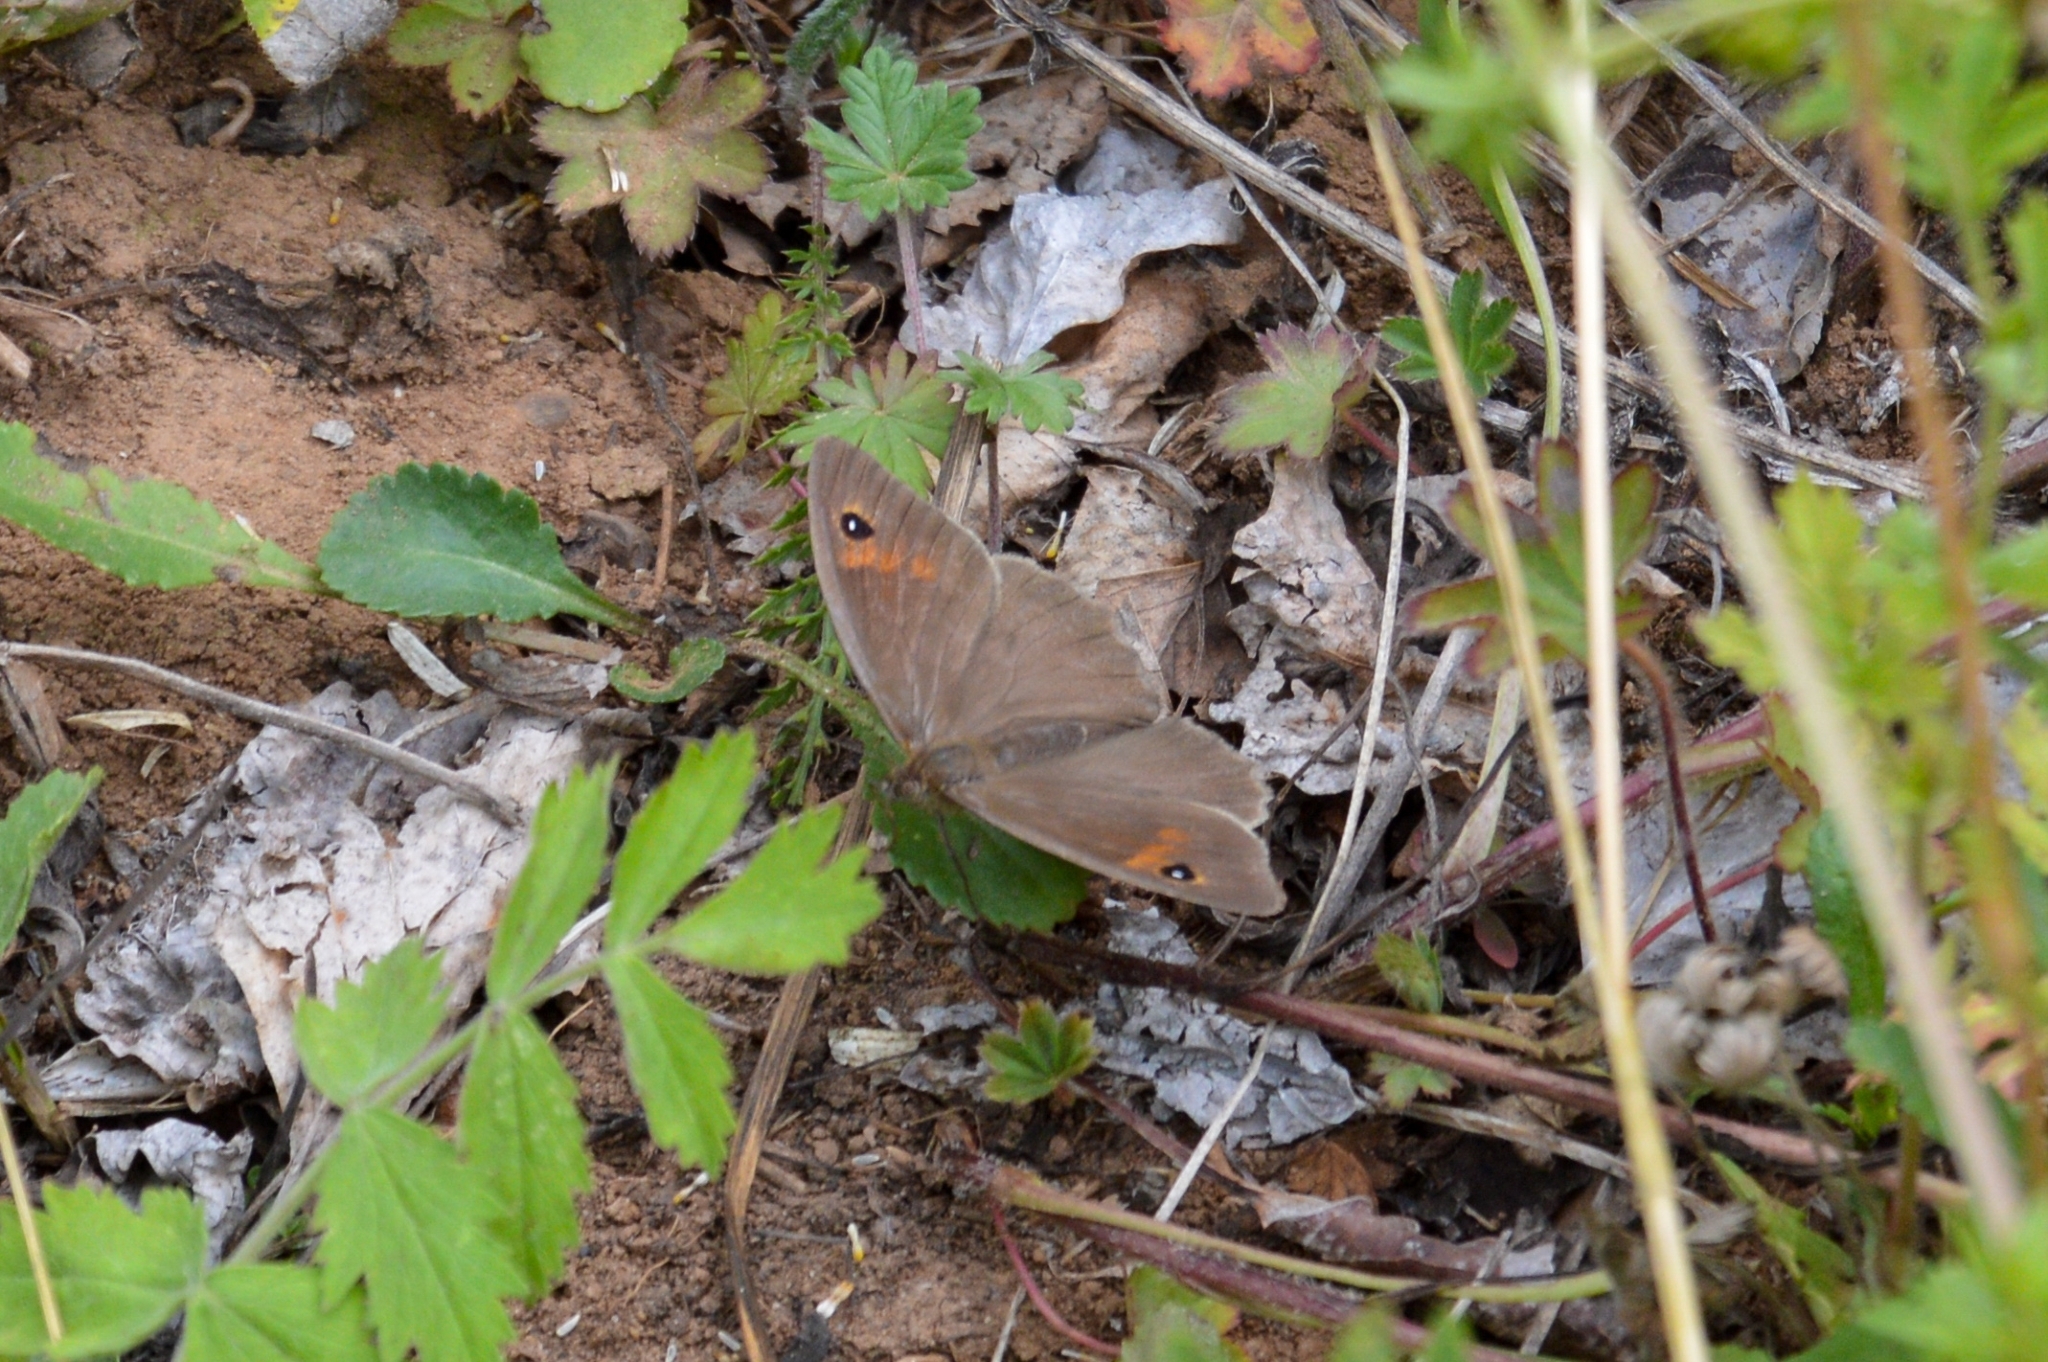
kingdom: Animalia
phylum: Arthropoda
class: Insecta
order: Lepidoptera
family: Nymphalidae
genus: Pararge
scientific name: Pararge Lasiommata maera
